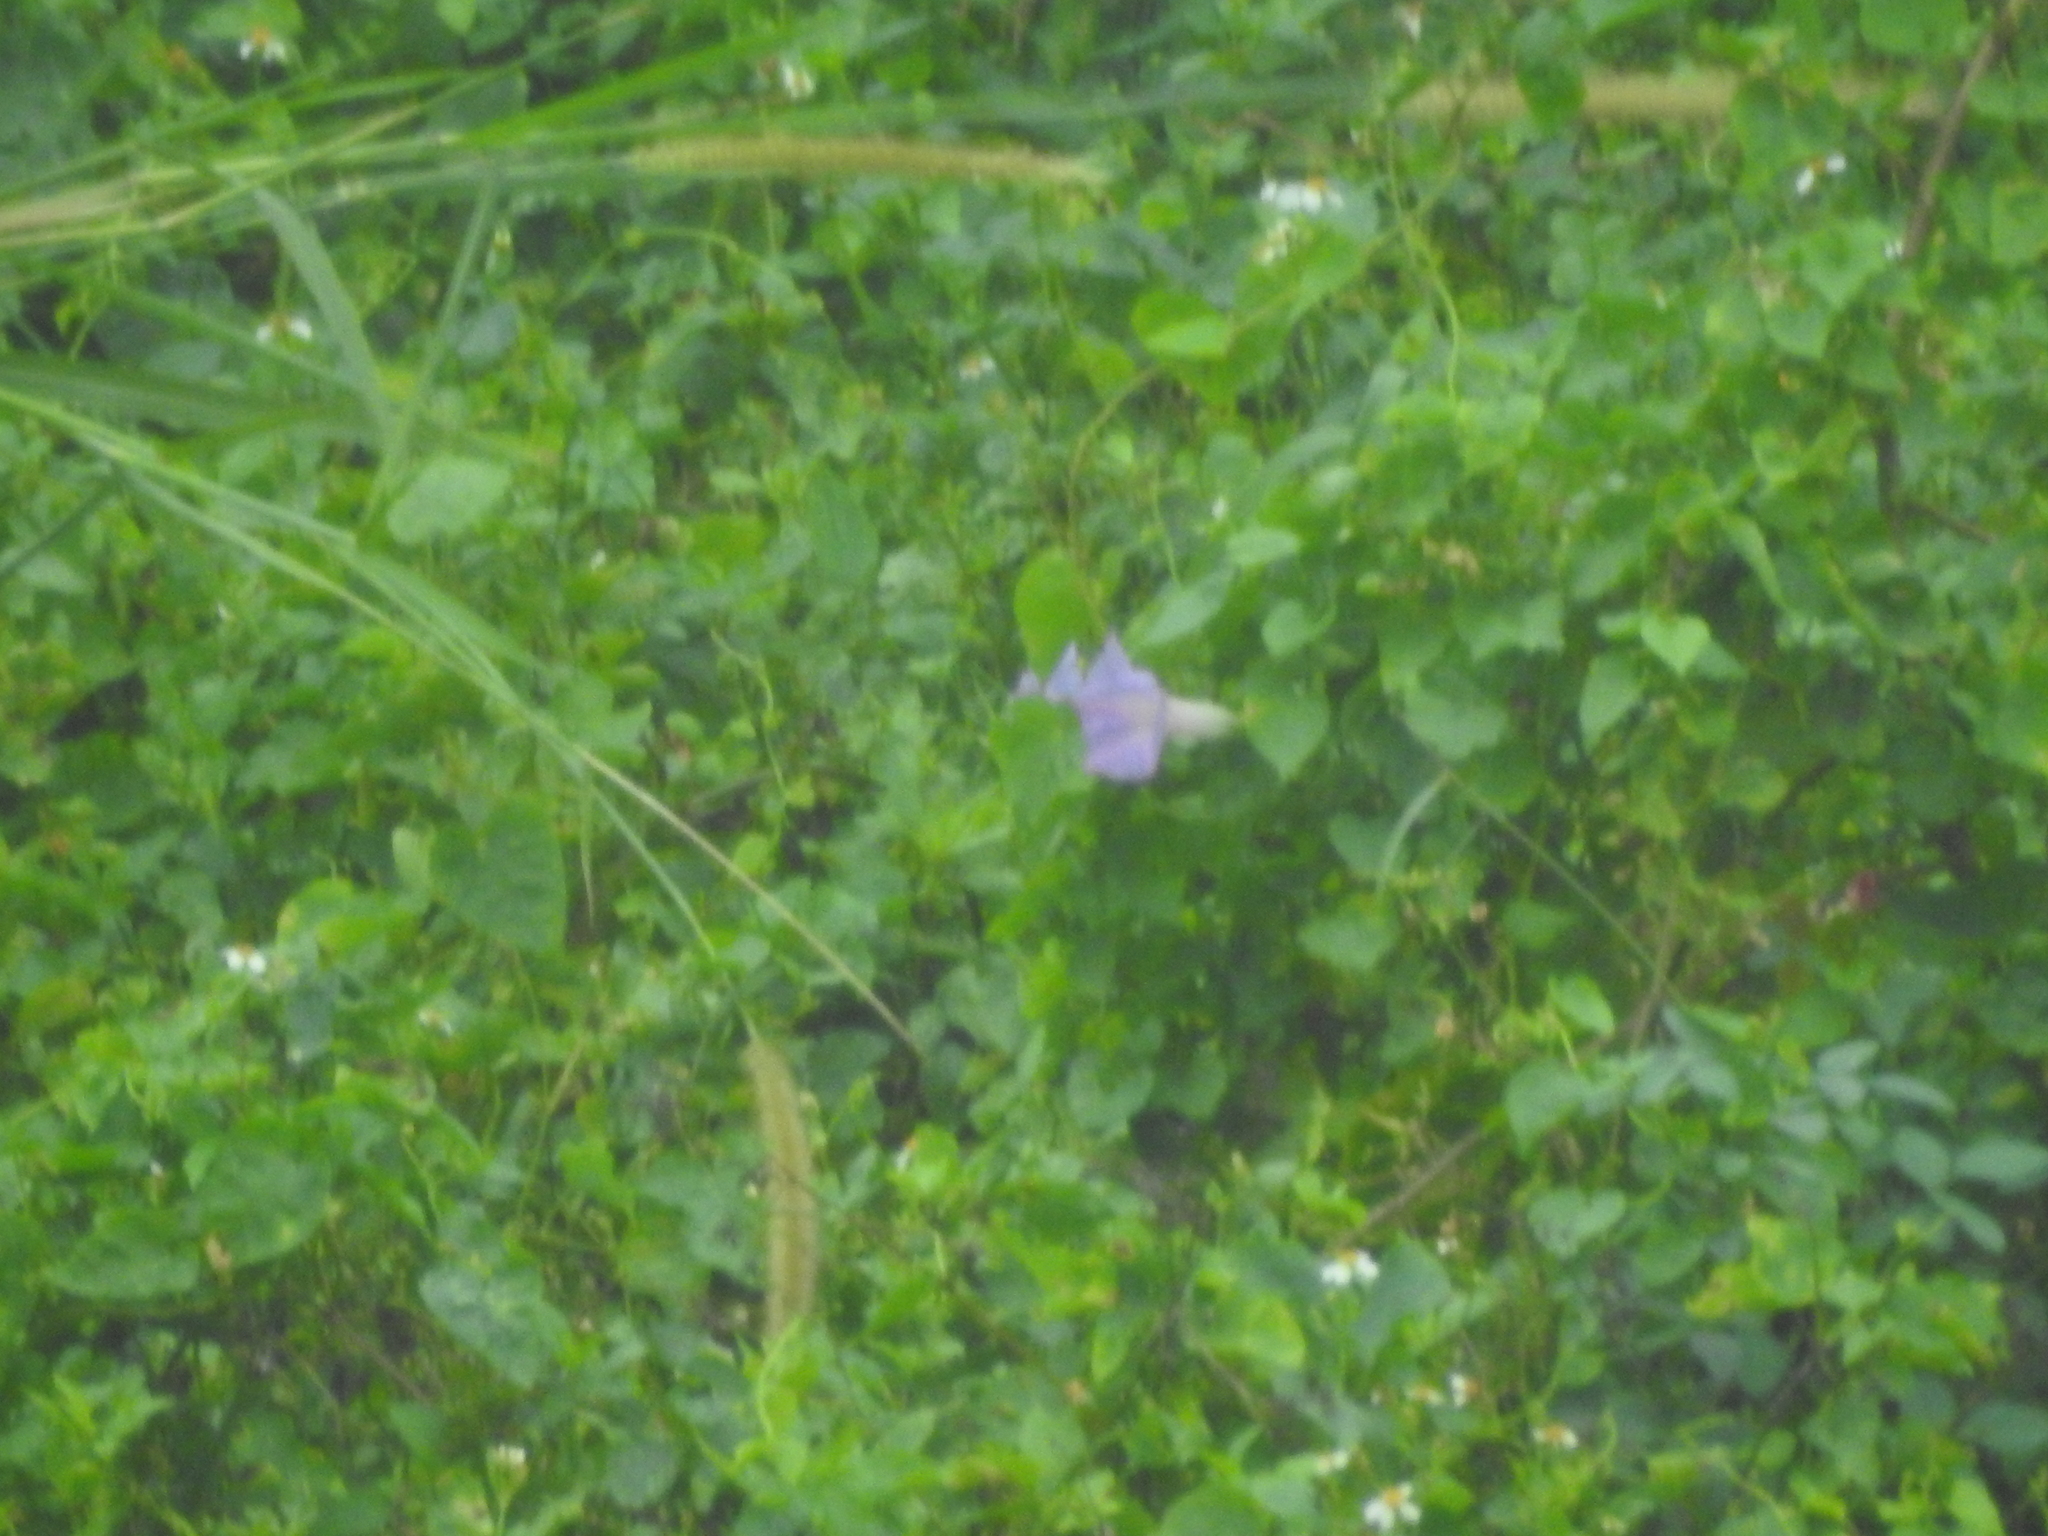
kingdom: Plantae
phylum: Tracheophyta
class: Magnoliopsida
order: Solanales
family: Convolvulaceae
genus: Ipomoea
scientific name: Ipomoea indica
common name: Blue dawnflower
